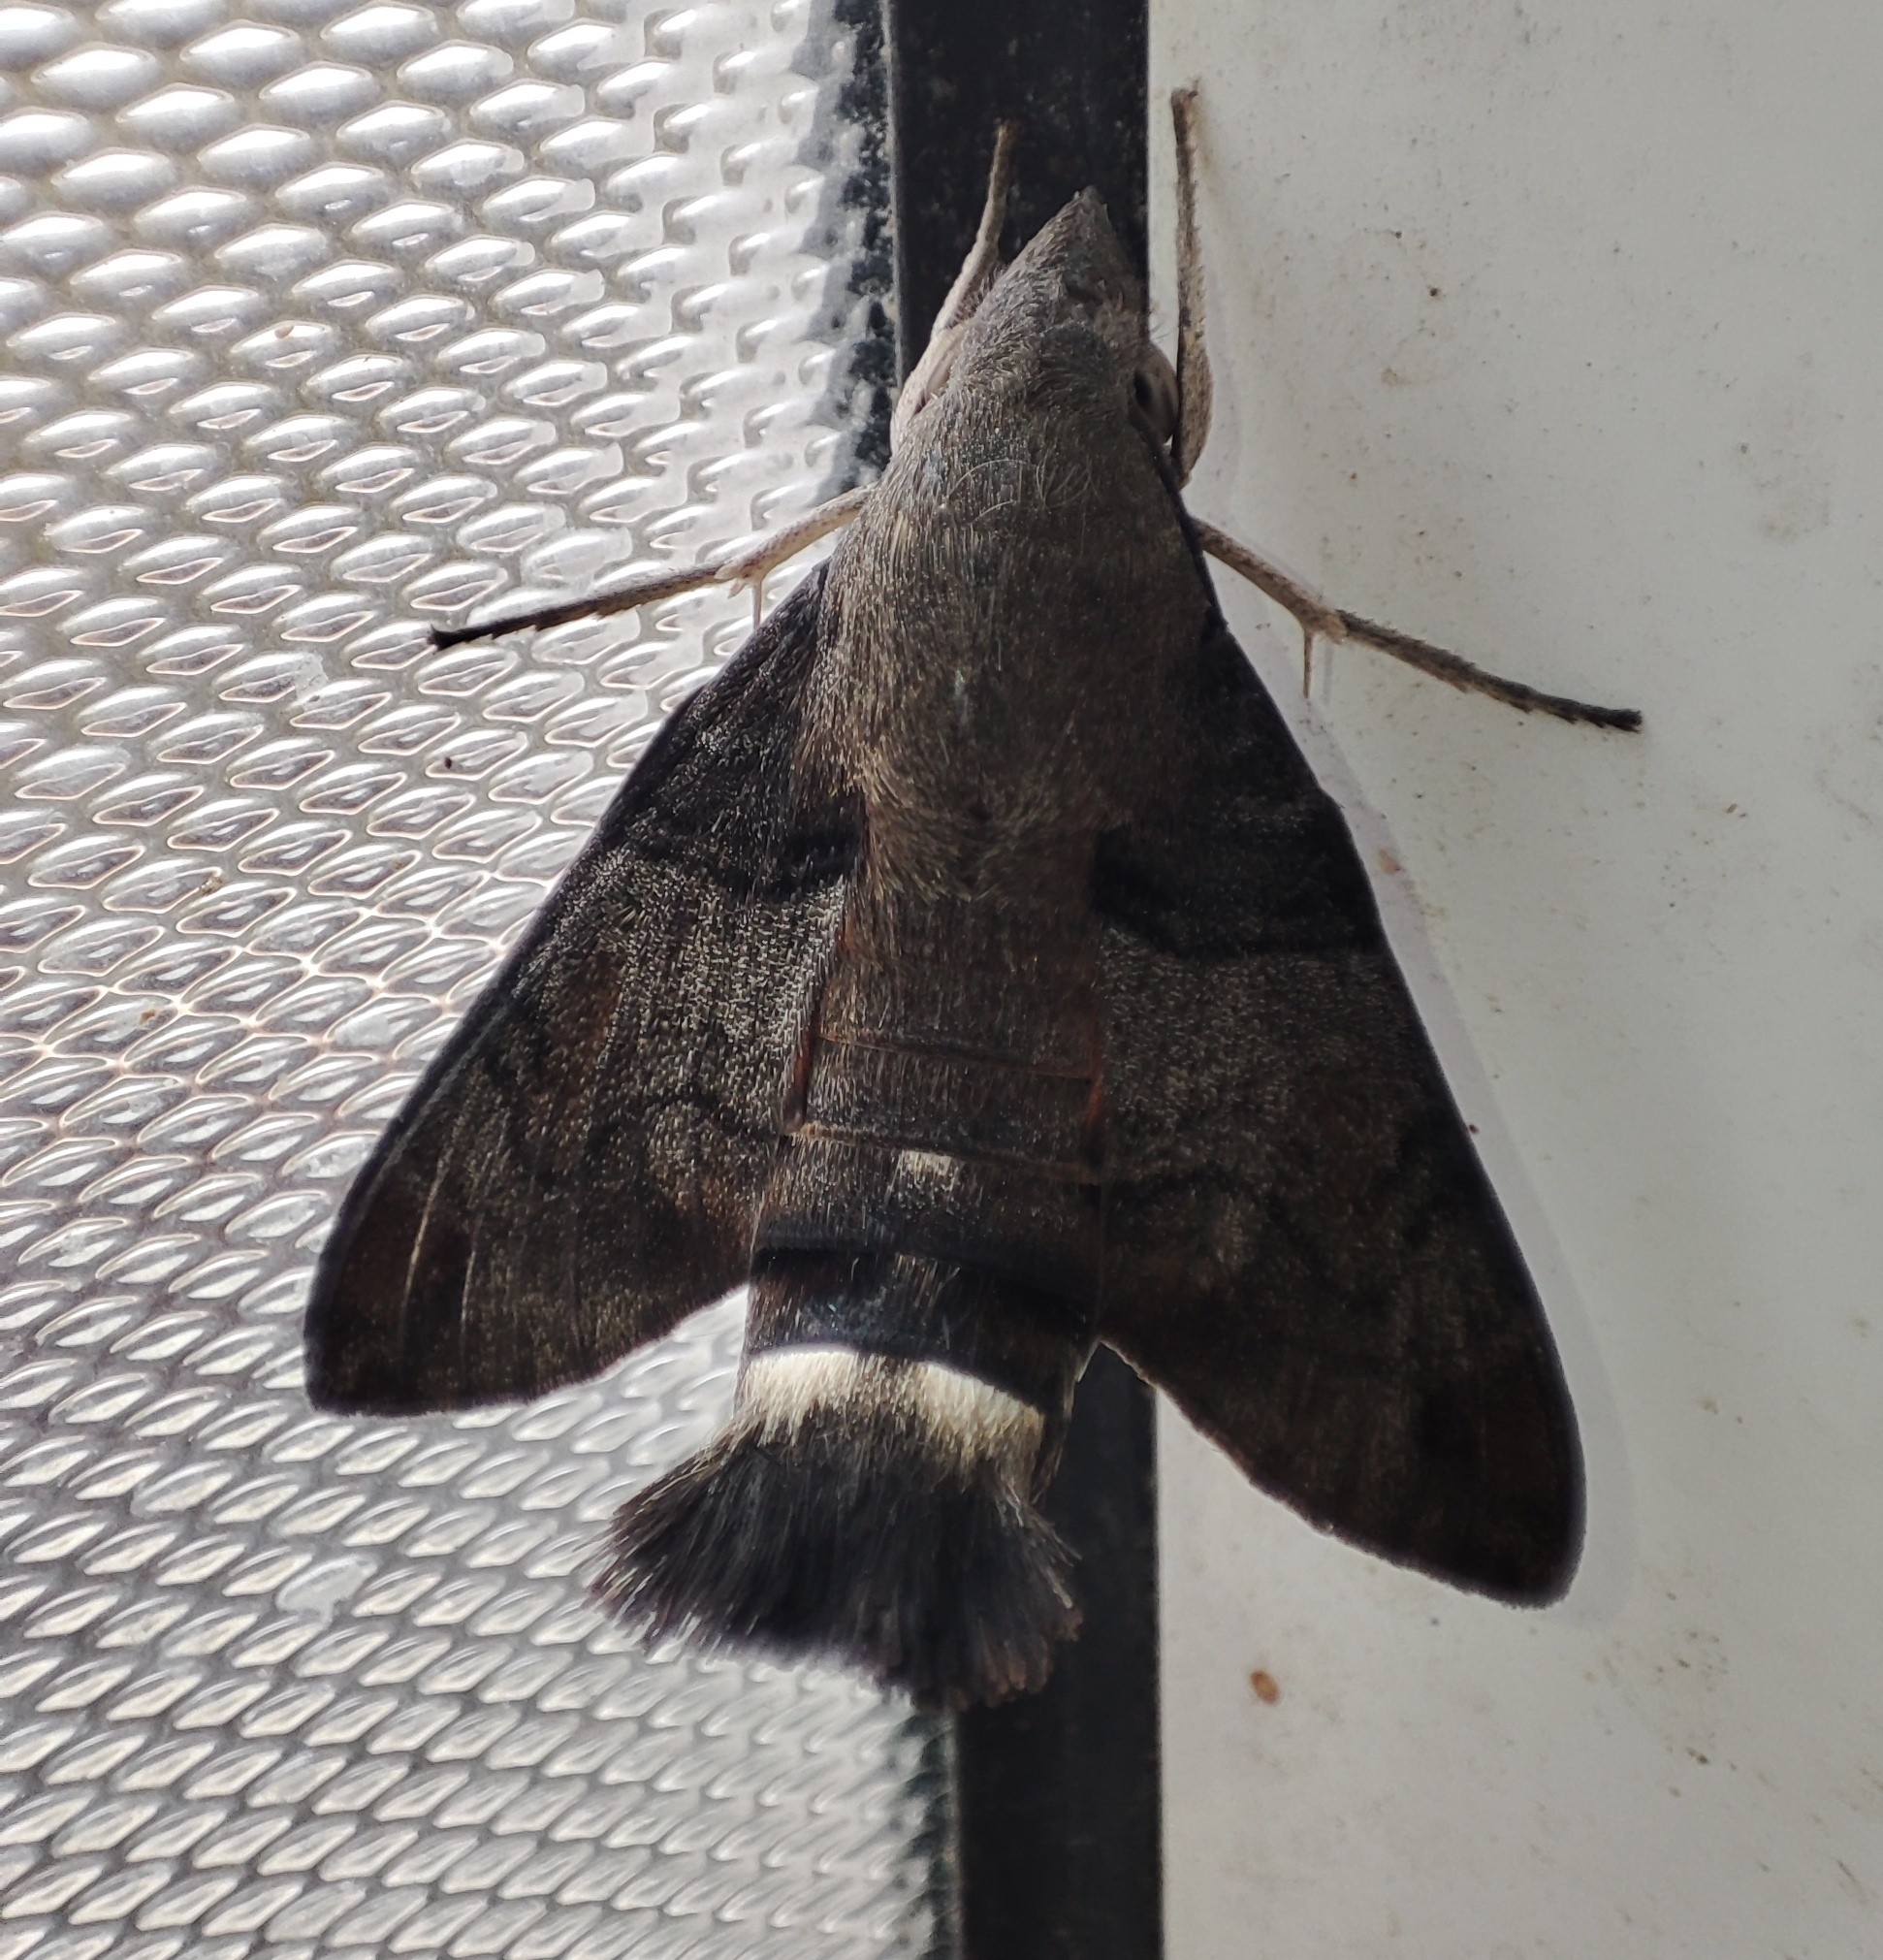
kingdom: Animalia
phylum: Arthropoda
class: Insecta
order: Lepidoptera
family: Sphingidae
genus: Macroglossum
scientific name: Macroglossum corythus
